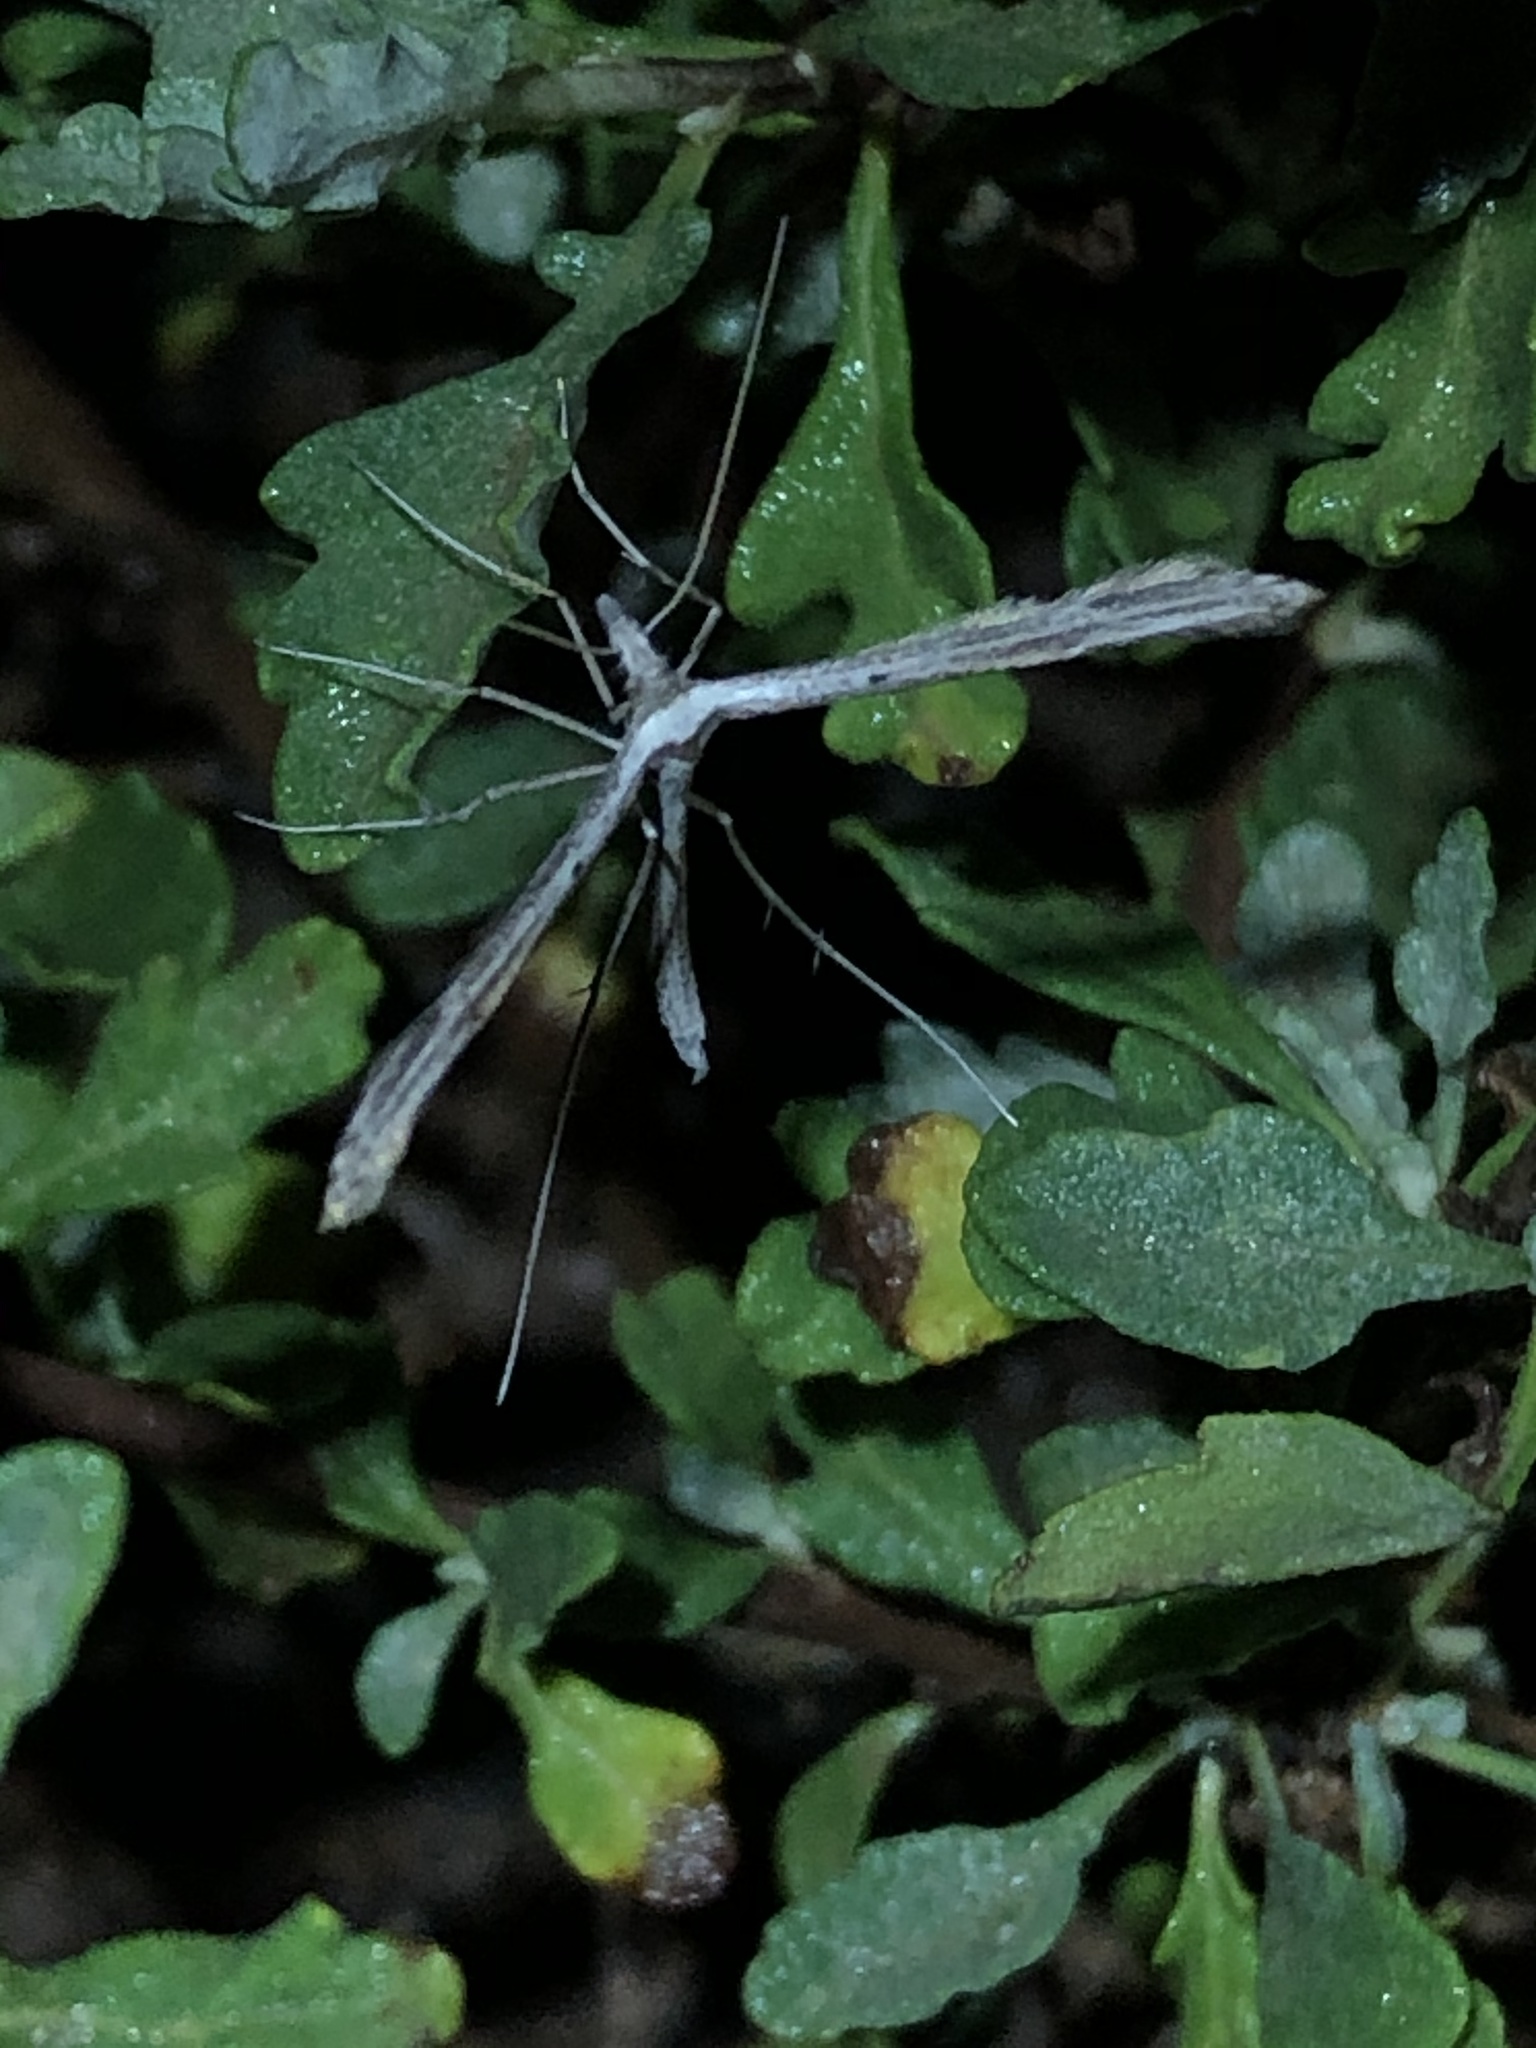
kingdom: Animalia
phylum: Arthropoda
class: Insecta
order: Lepidoptera
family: Pterophoridae
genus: Hellinsia
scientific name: Hellinsia longifrons
